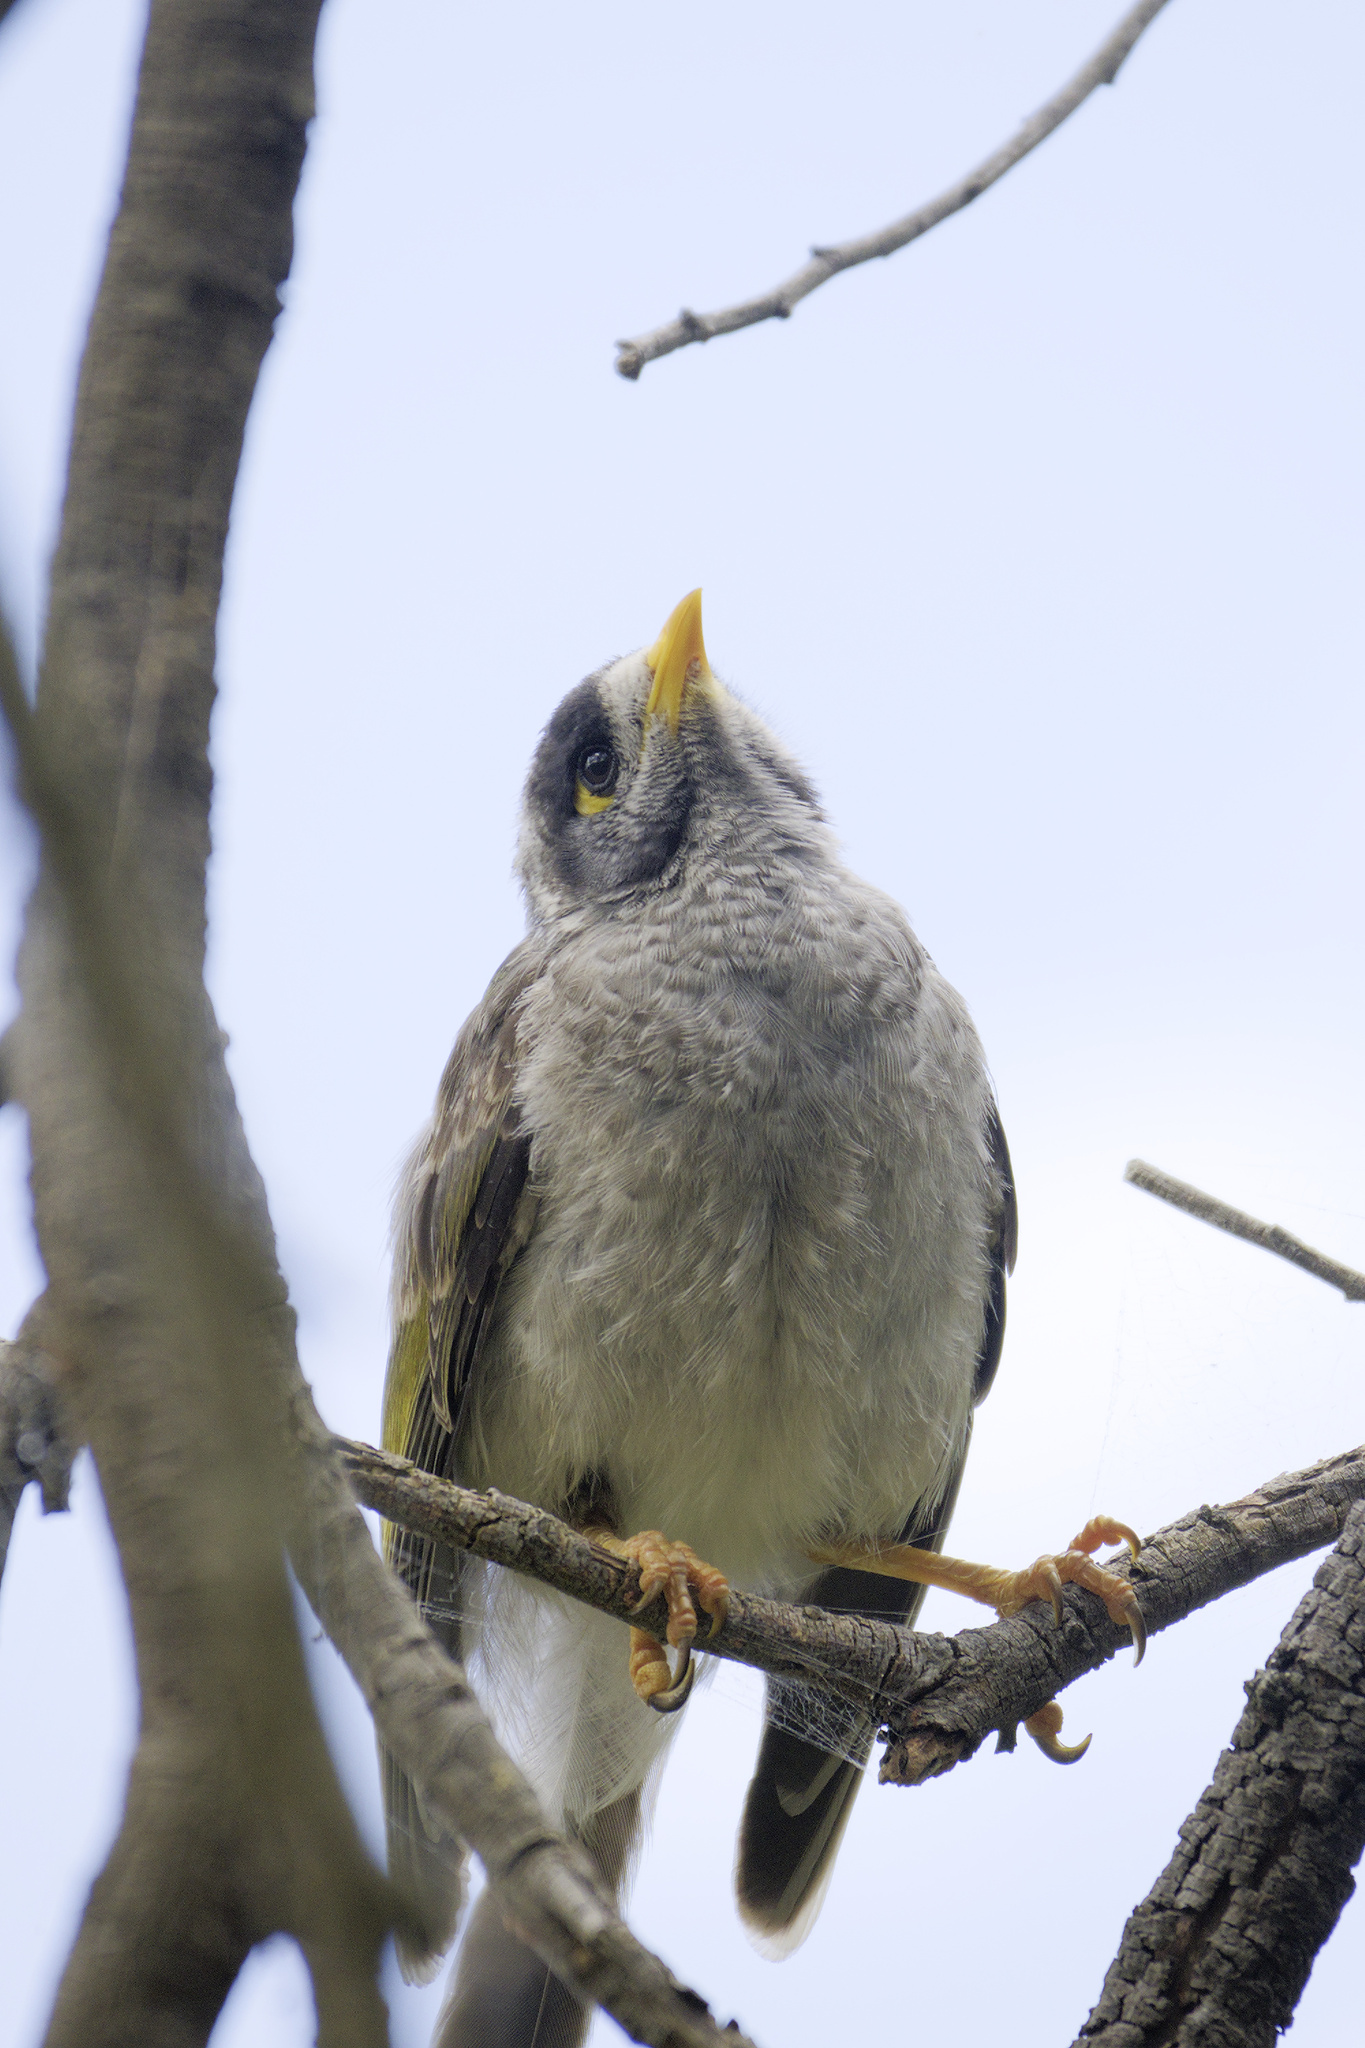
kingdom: Animalia
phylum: Chordata
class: Aves
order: Passeriformes
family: Meliphagidae
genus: Manorina
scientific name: Manorina melanocephala
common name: Noisy miner
